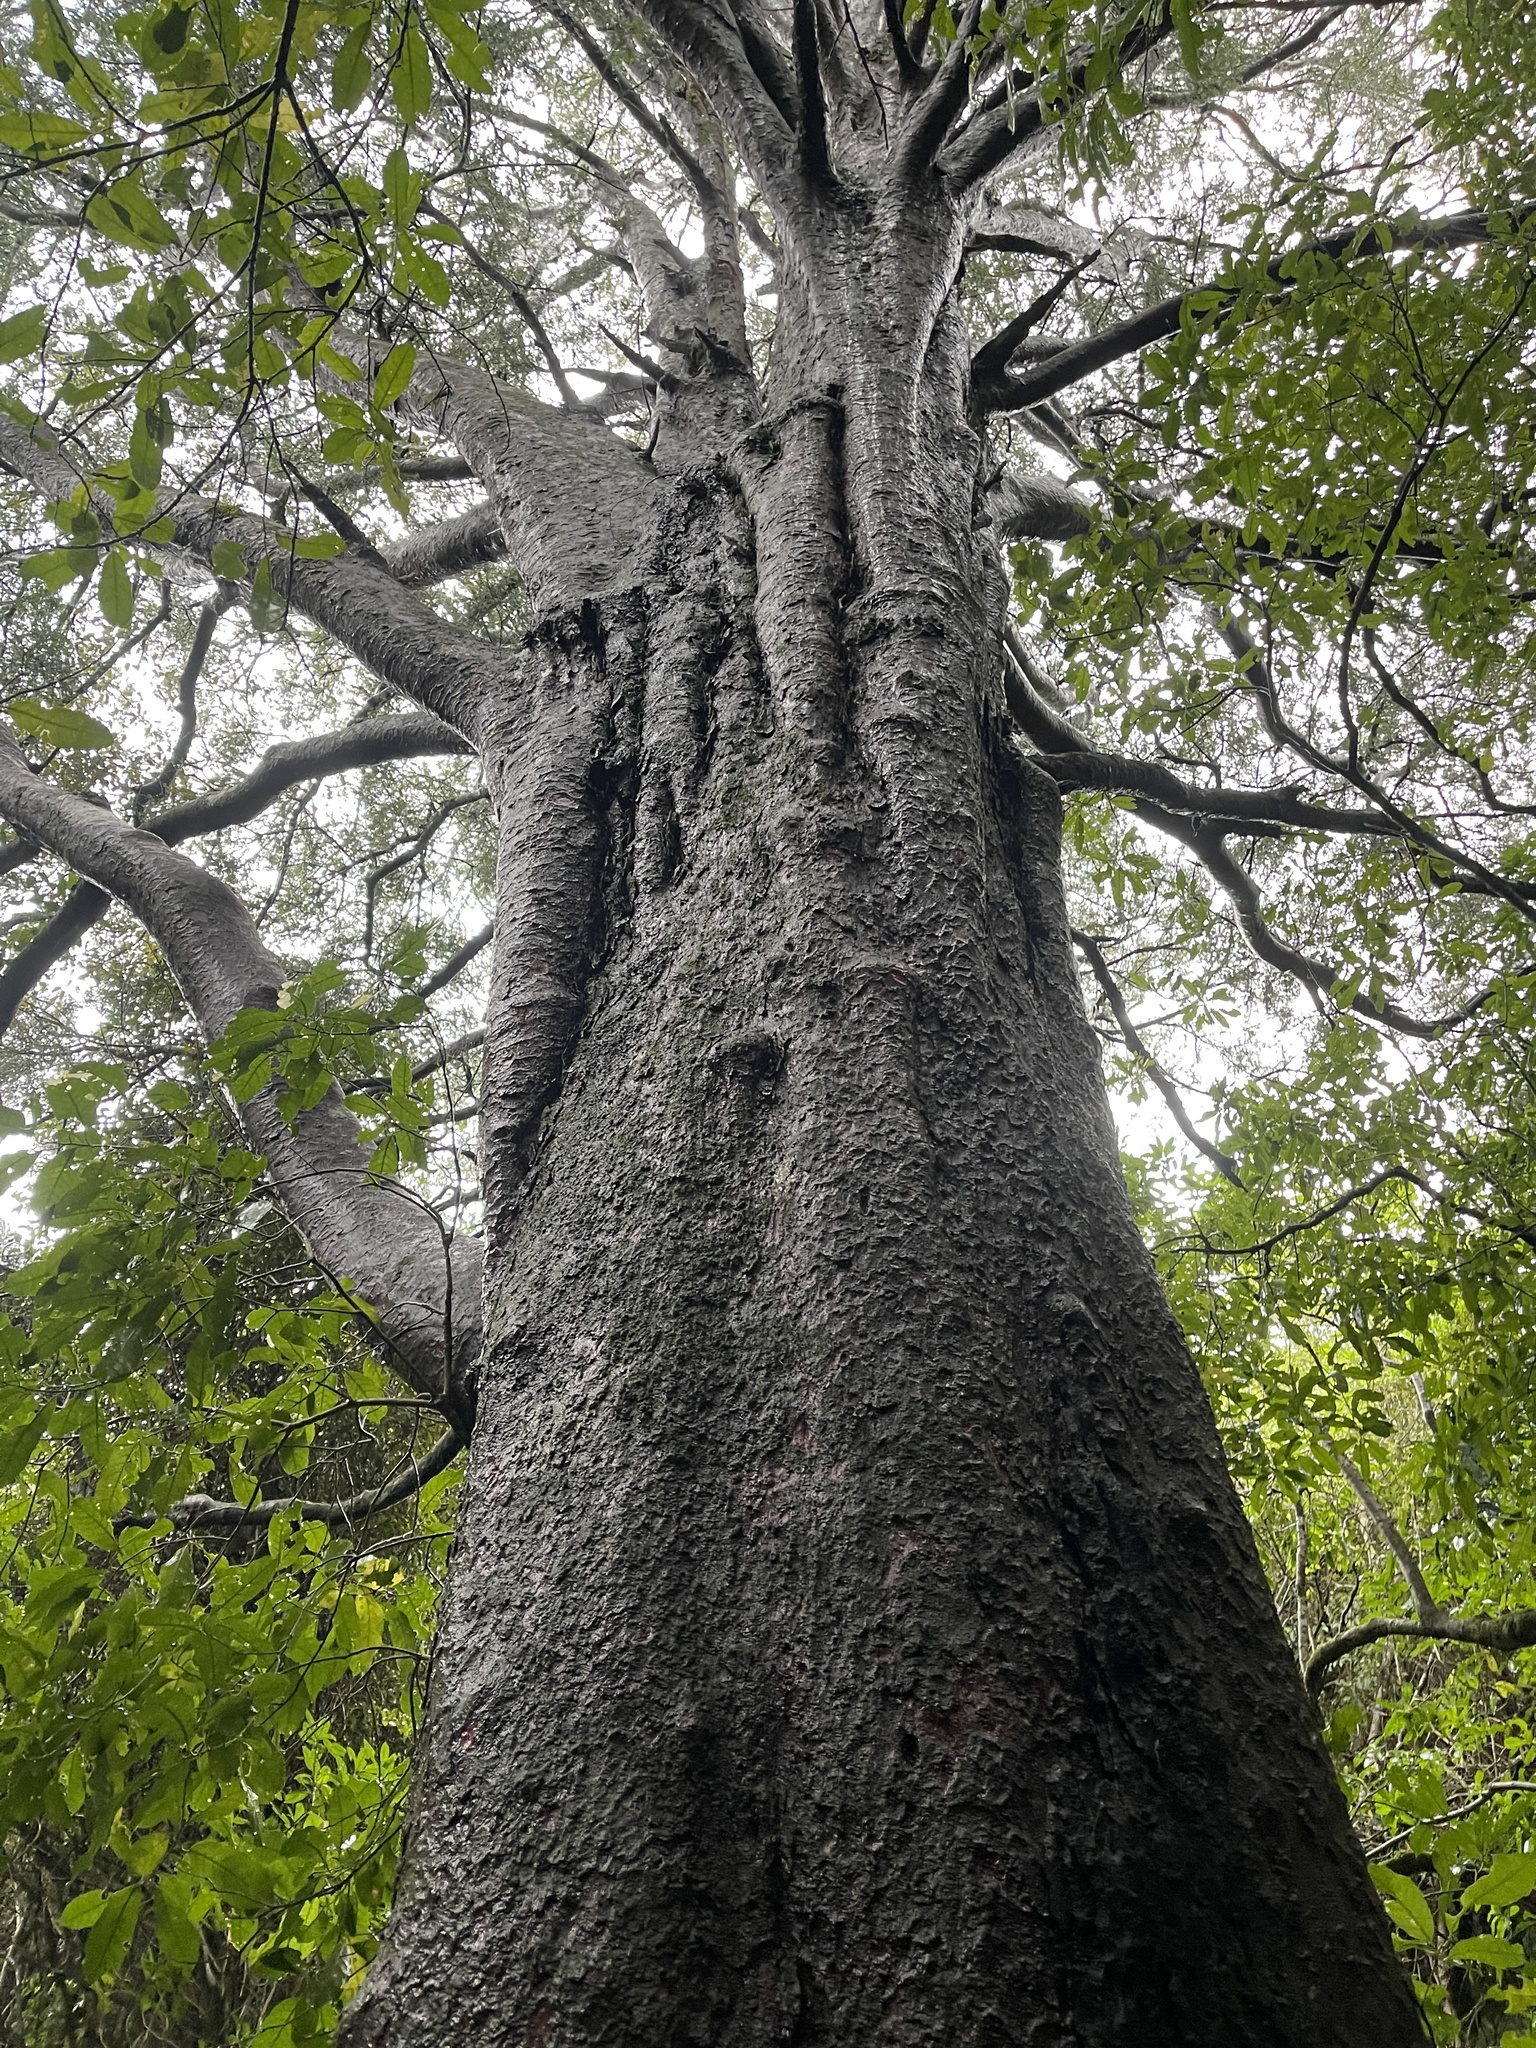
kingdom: Plantae
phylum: Tracheophyta
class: Pinopsida
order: Pinales
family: Podocarpaceae
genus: Prumnopitys
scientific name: Prumnopitys taxifolia
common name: Matai
